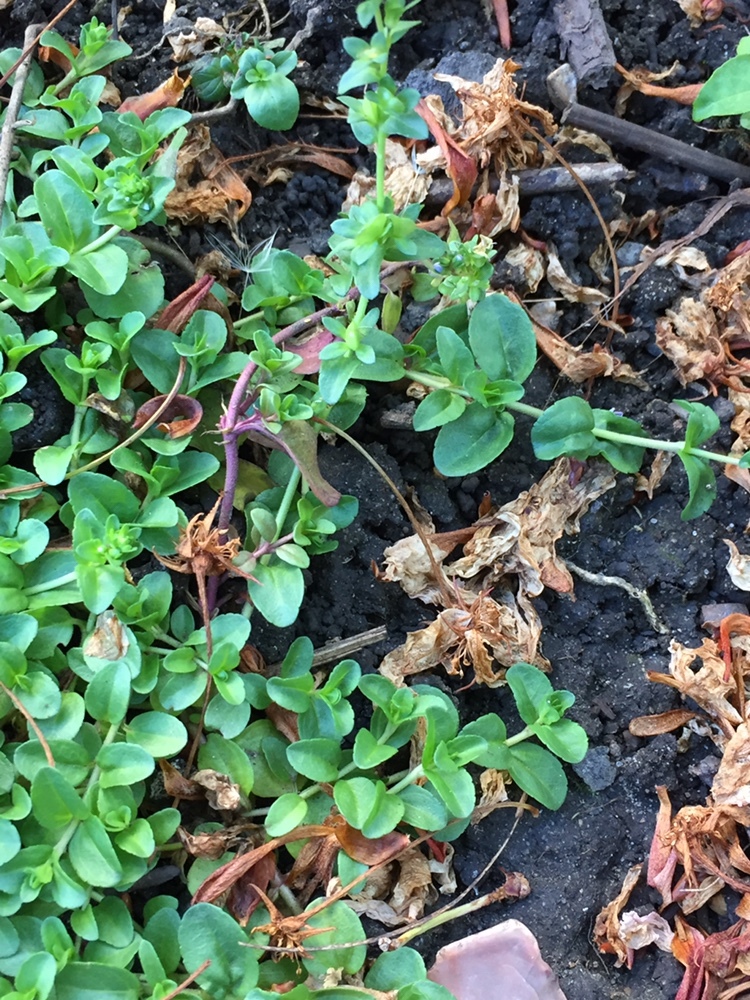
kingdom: Plantae
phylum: Tracheophyta
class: Magnoliopsida
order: Lamiales
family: Plantaginaceae
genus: Veronica
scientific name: Veronica serpyllifolia
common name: Thyme-leaved speedwell
